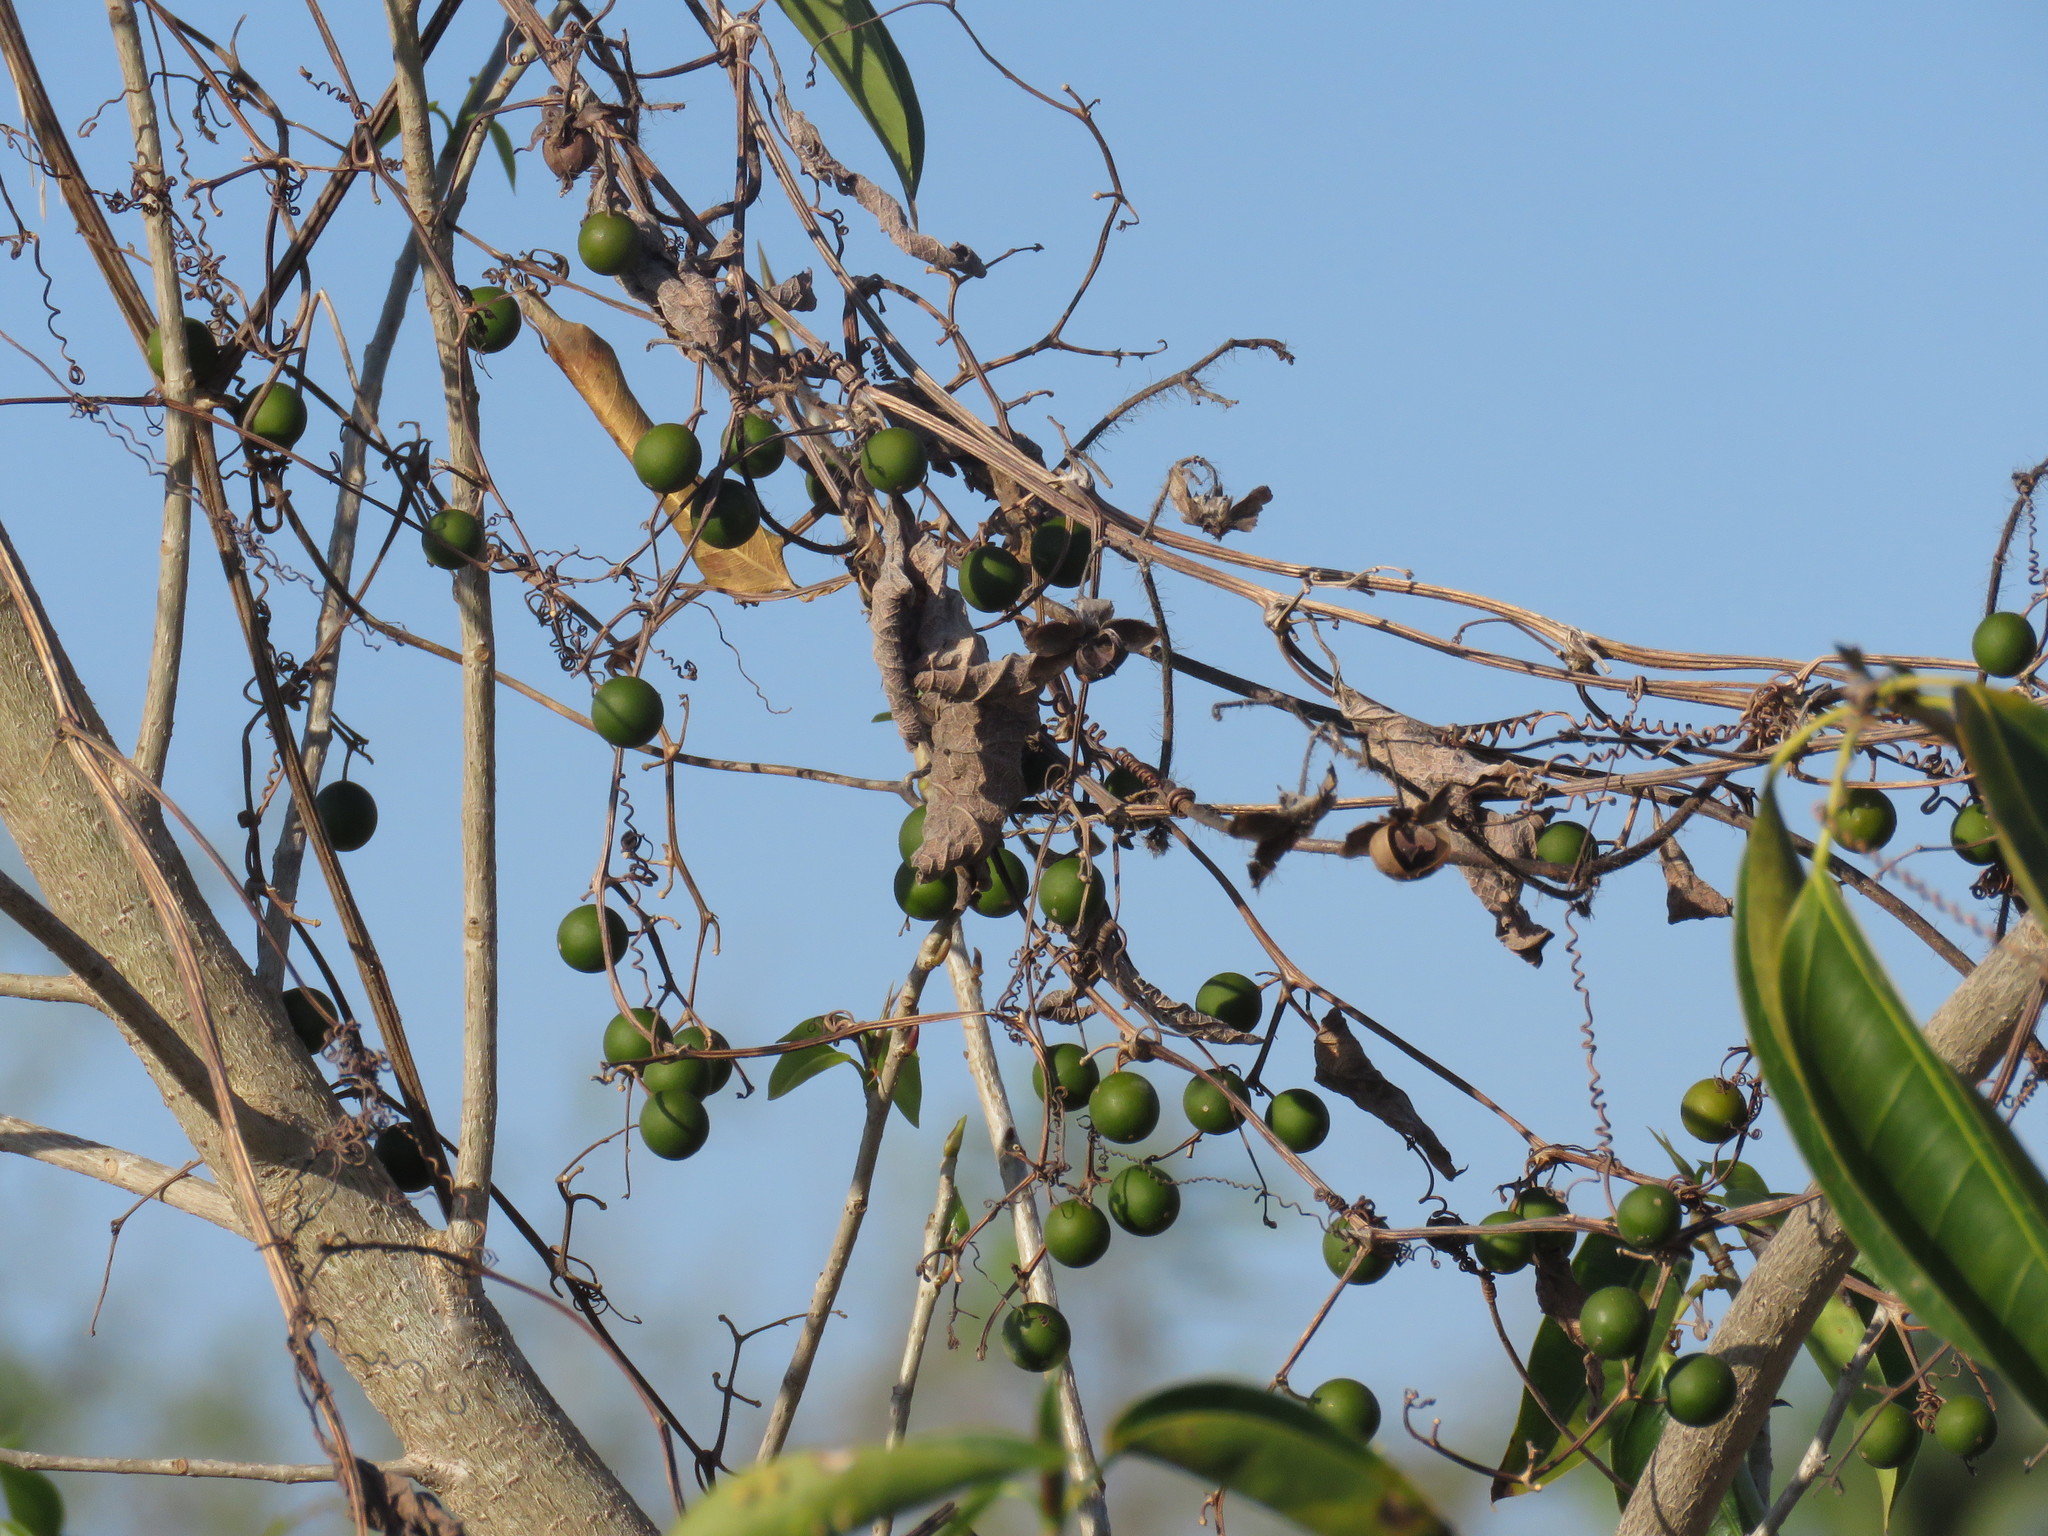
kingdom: Plantae
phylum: Tracheophyta
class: Magnoliopsida
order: Cucurbitales
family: Cucurbitaceae
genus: Cayaponia
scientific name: Cayaponia attenuata
